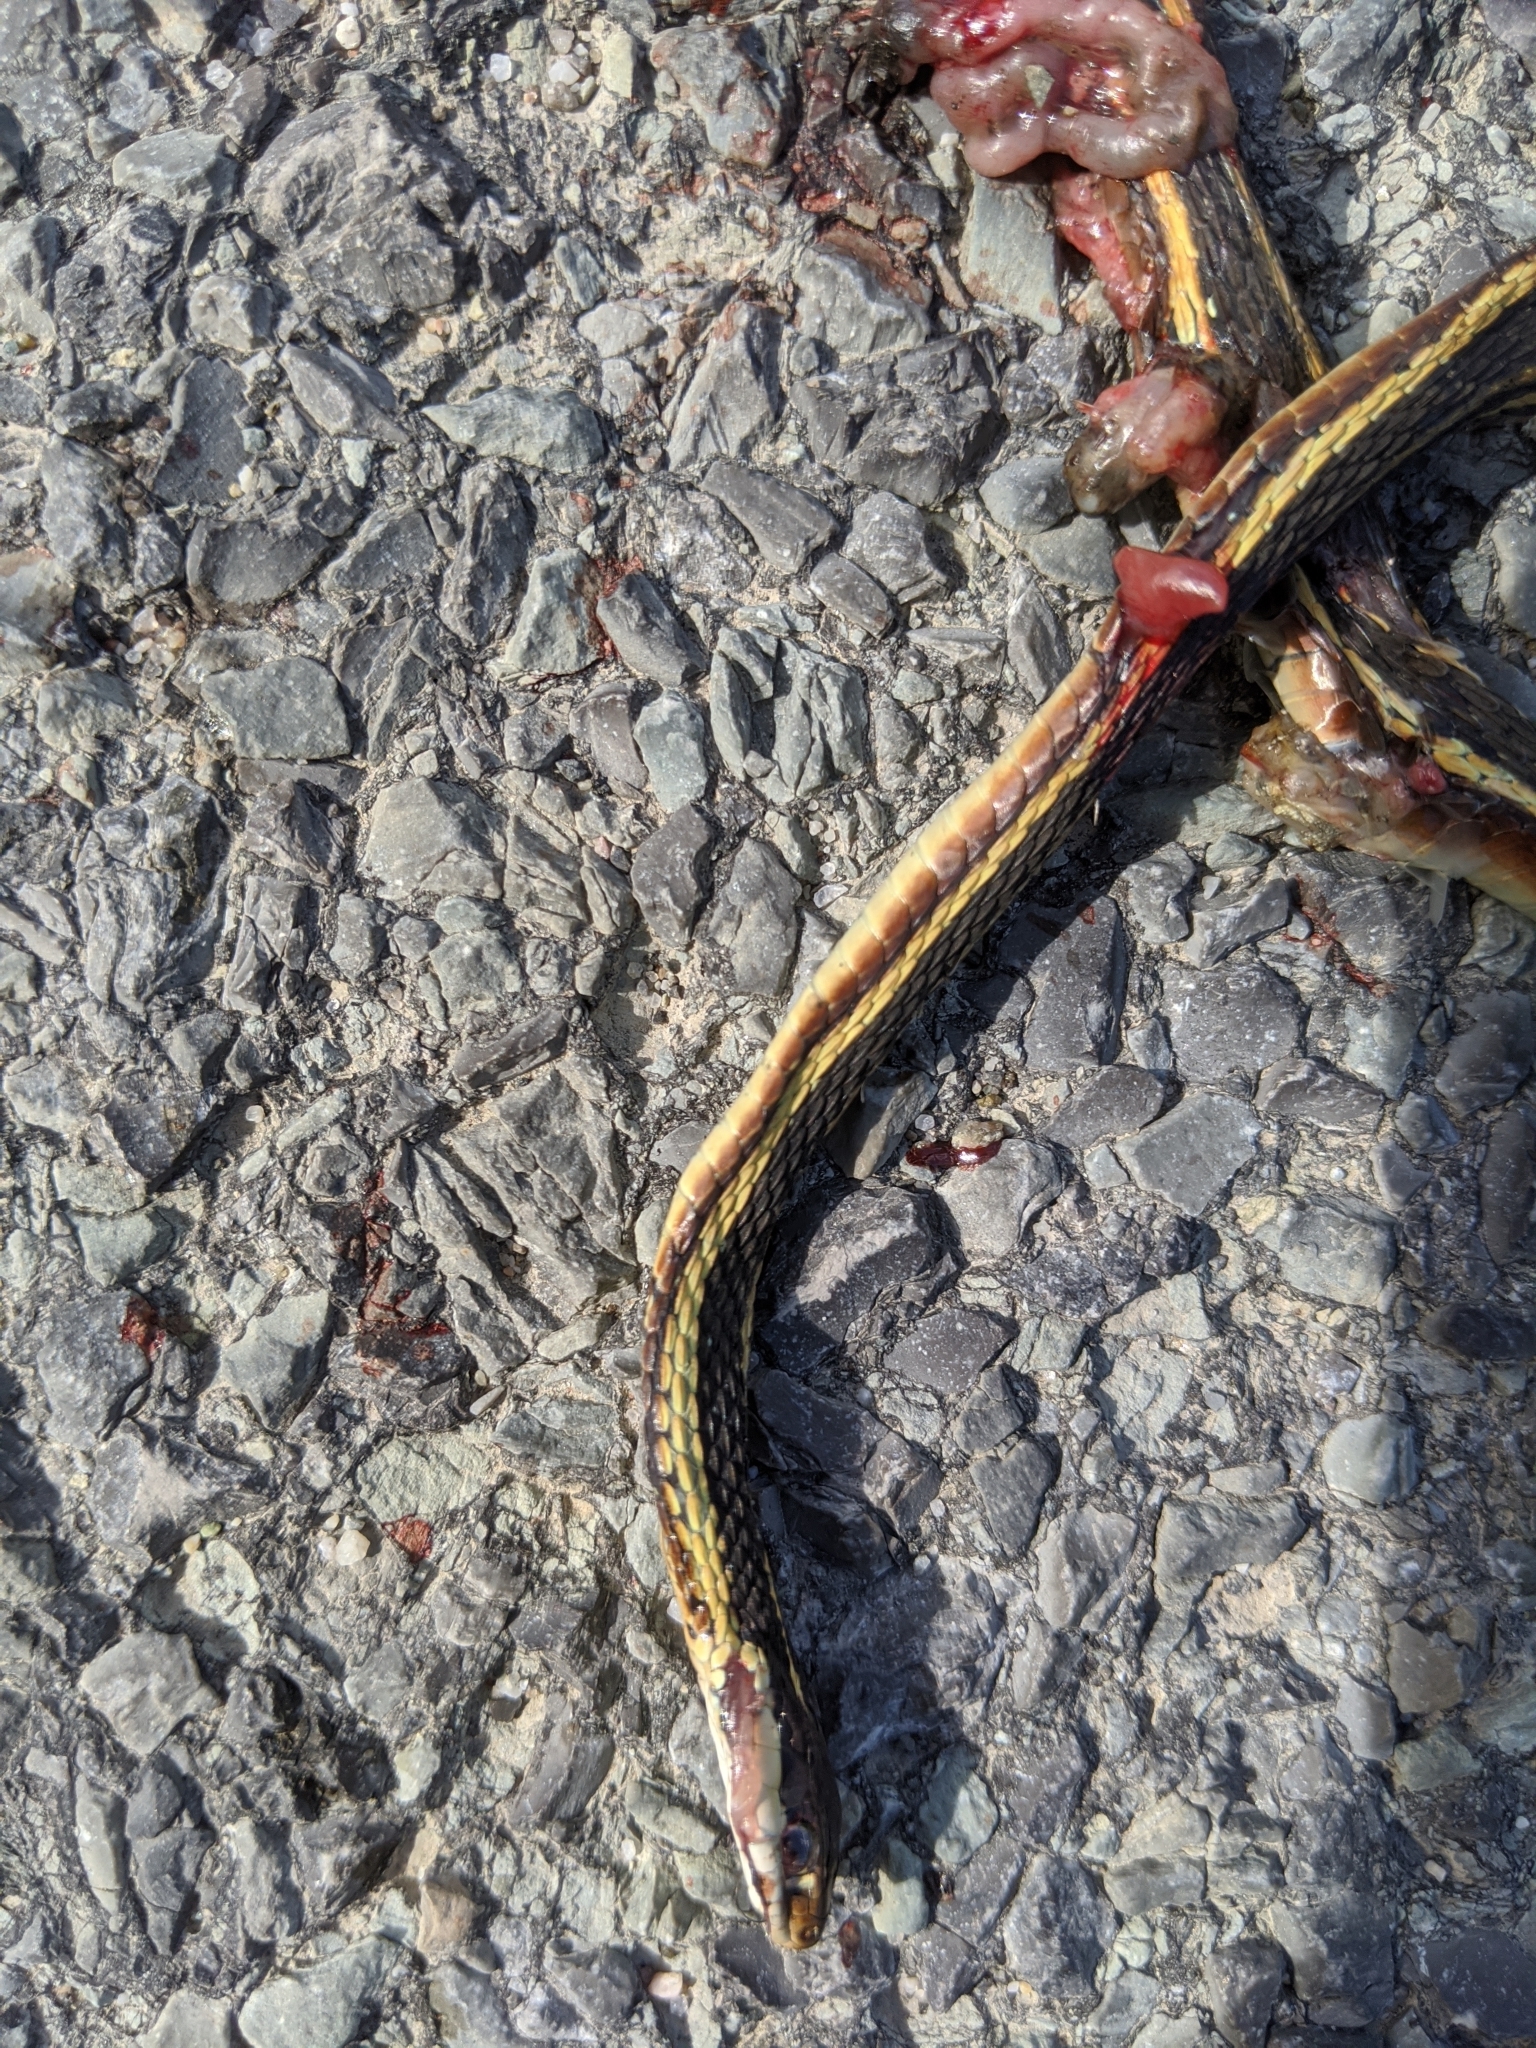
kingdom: Animalia
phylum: Chordata
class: Squamata
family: Colubridae
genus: Thamnophis
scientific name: Thamnophis saurita
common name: Eastern ribbonsnake
